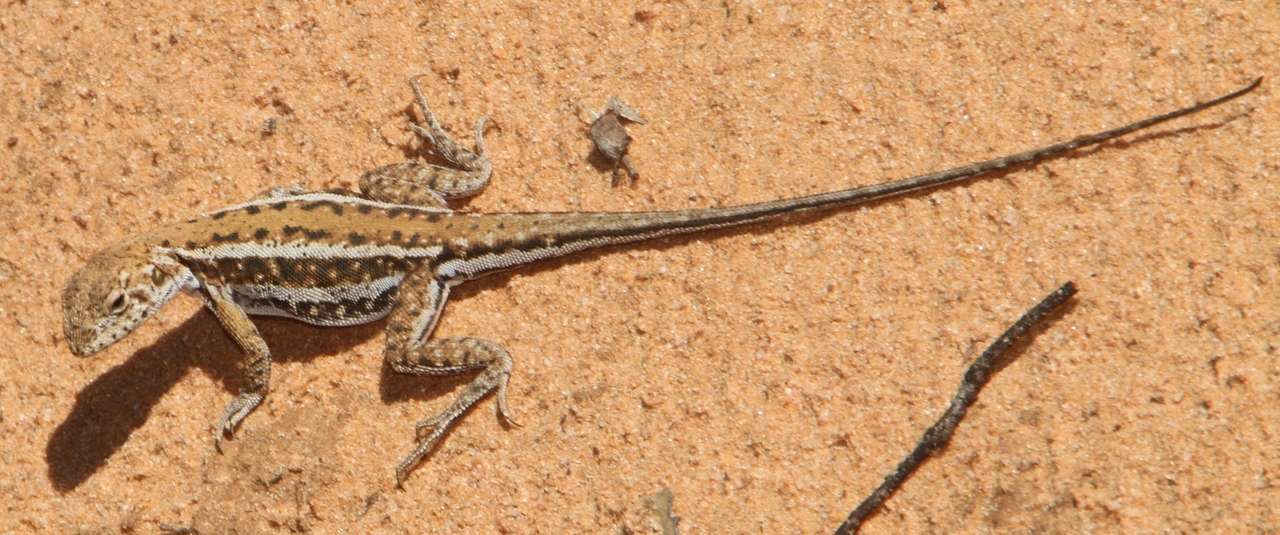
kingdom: Animalia
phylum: Chordata
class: Squamata
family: Agamidae
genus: Ctenophorus
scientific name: Ctenophorus
